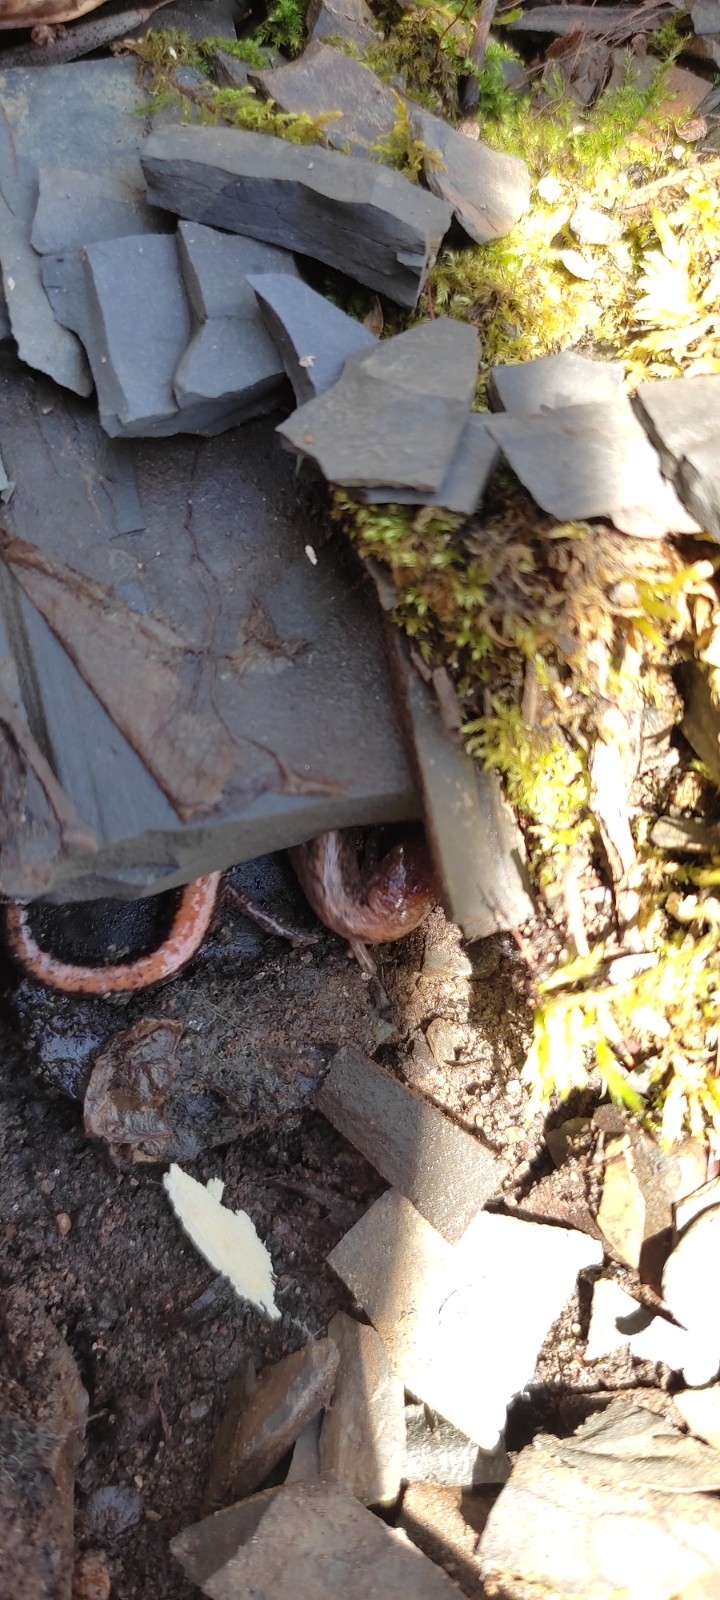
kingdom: Animalia
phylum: Chordata
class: Amphibia
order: Caudata
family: Plethodontidae
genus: Plethodon
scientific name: Plethodon cinereus
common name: Redback salamander
